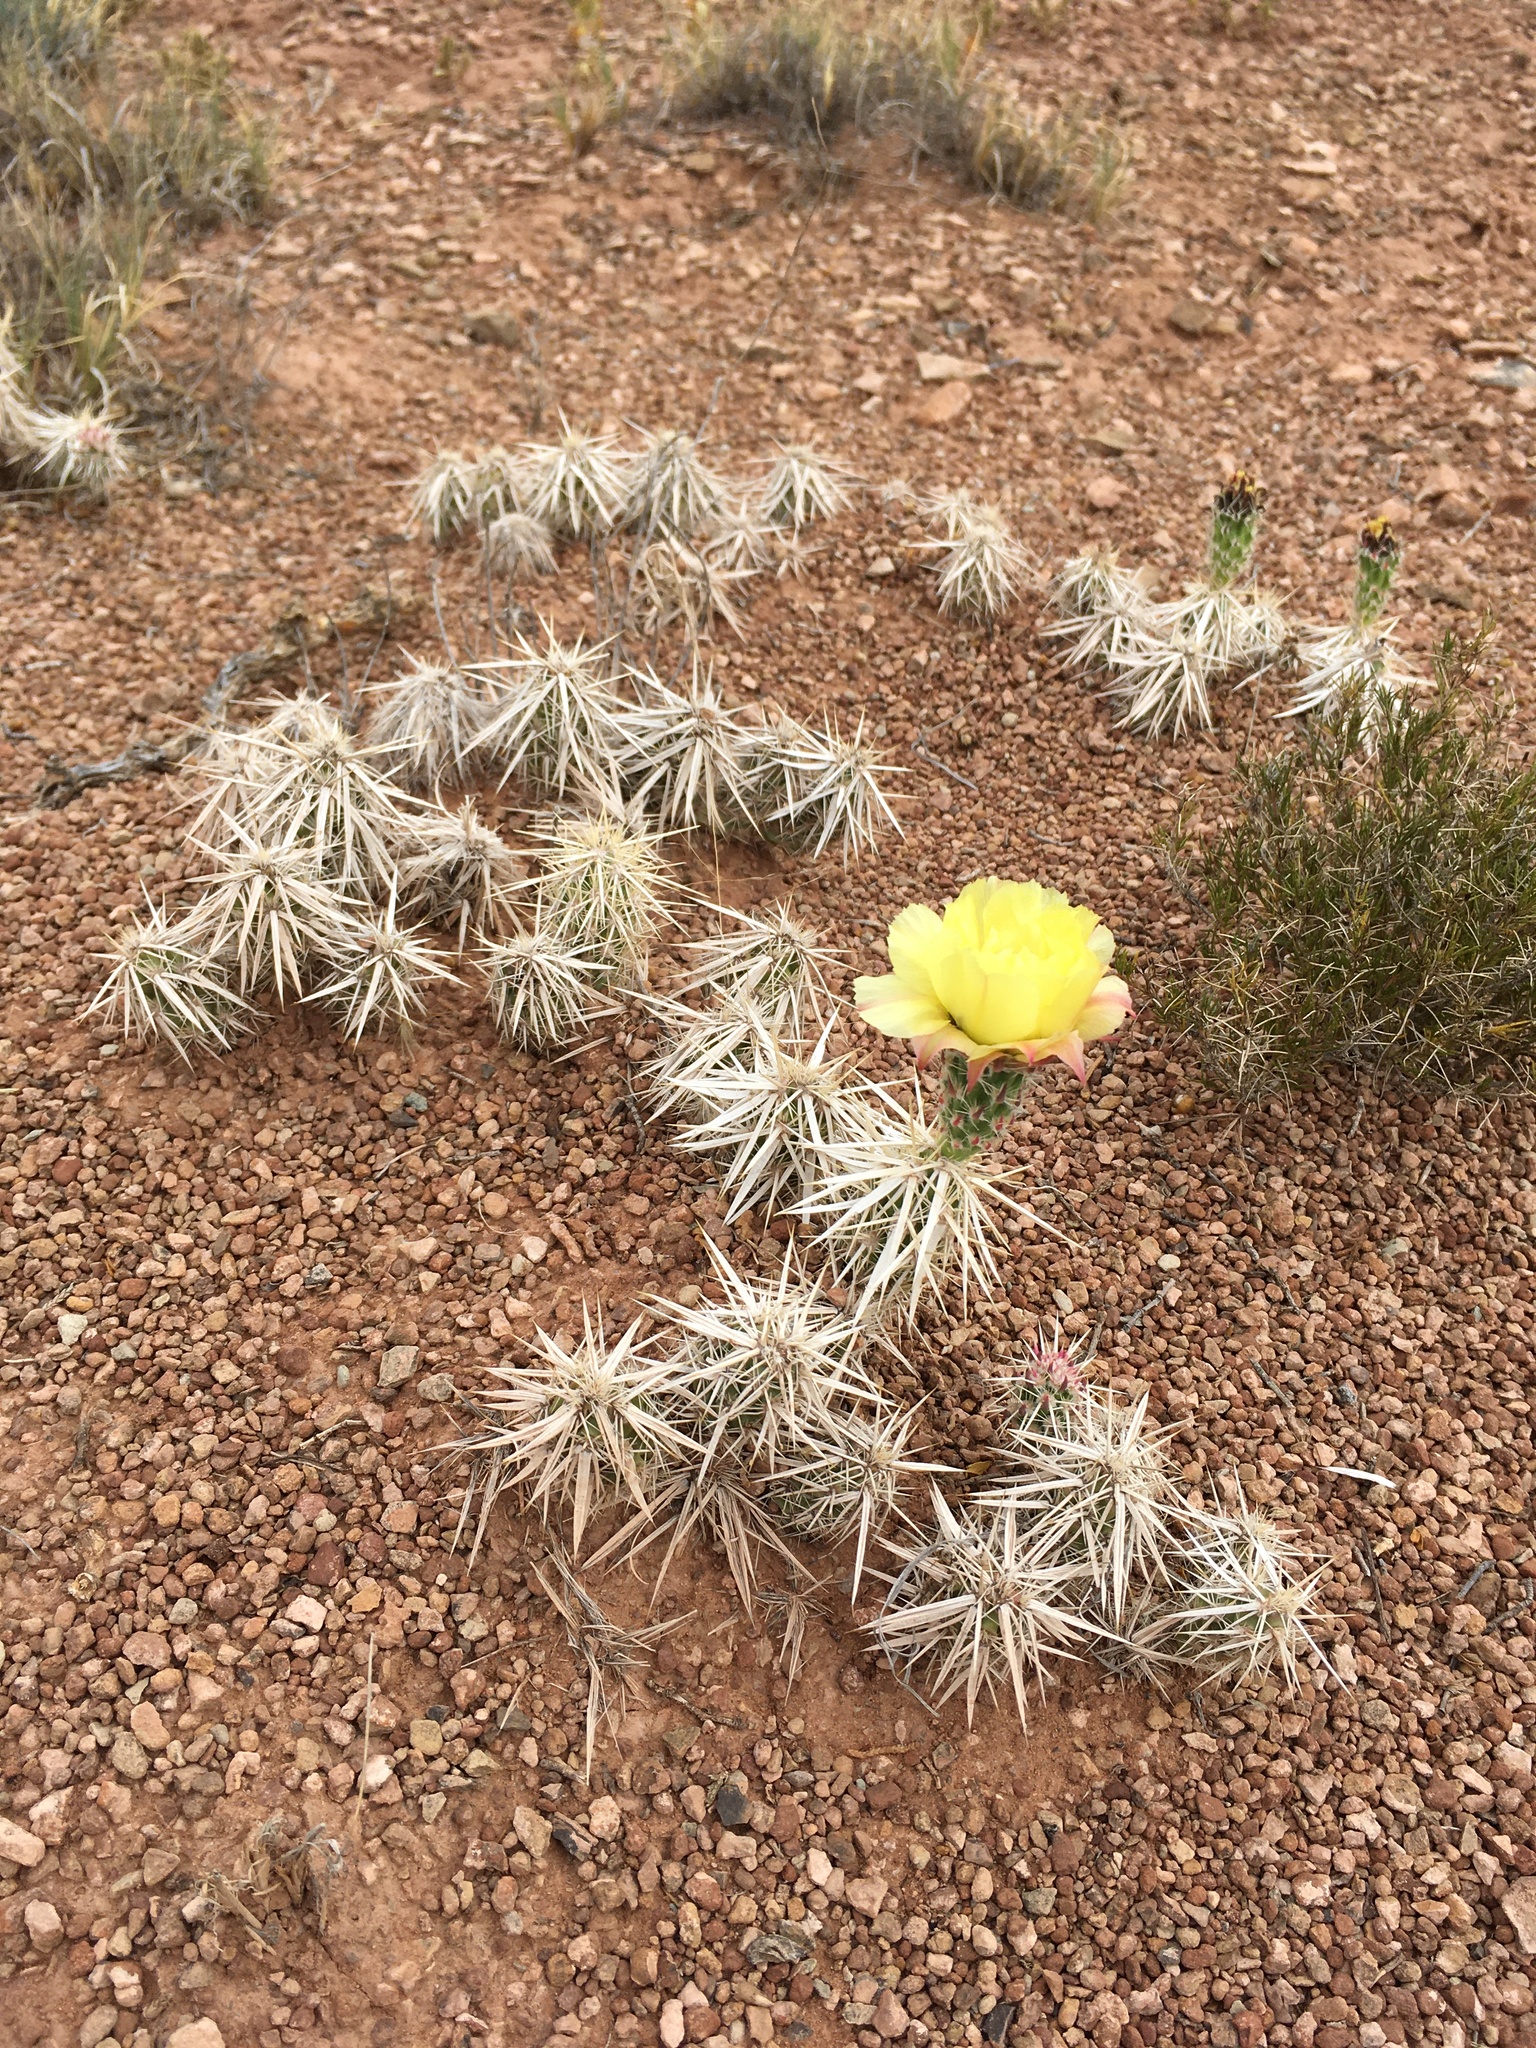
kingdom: Plantae
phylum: Tracheophyta
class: Magnoliopsida
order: Caryophyllales
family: Cactaceae
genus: Grusonia
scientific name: Grusonia clavata
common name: Club cholla
